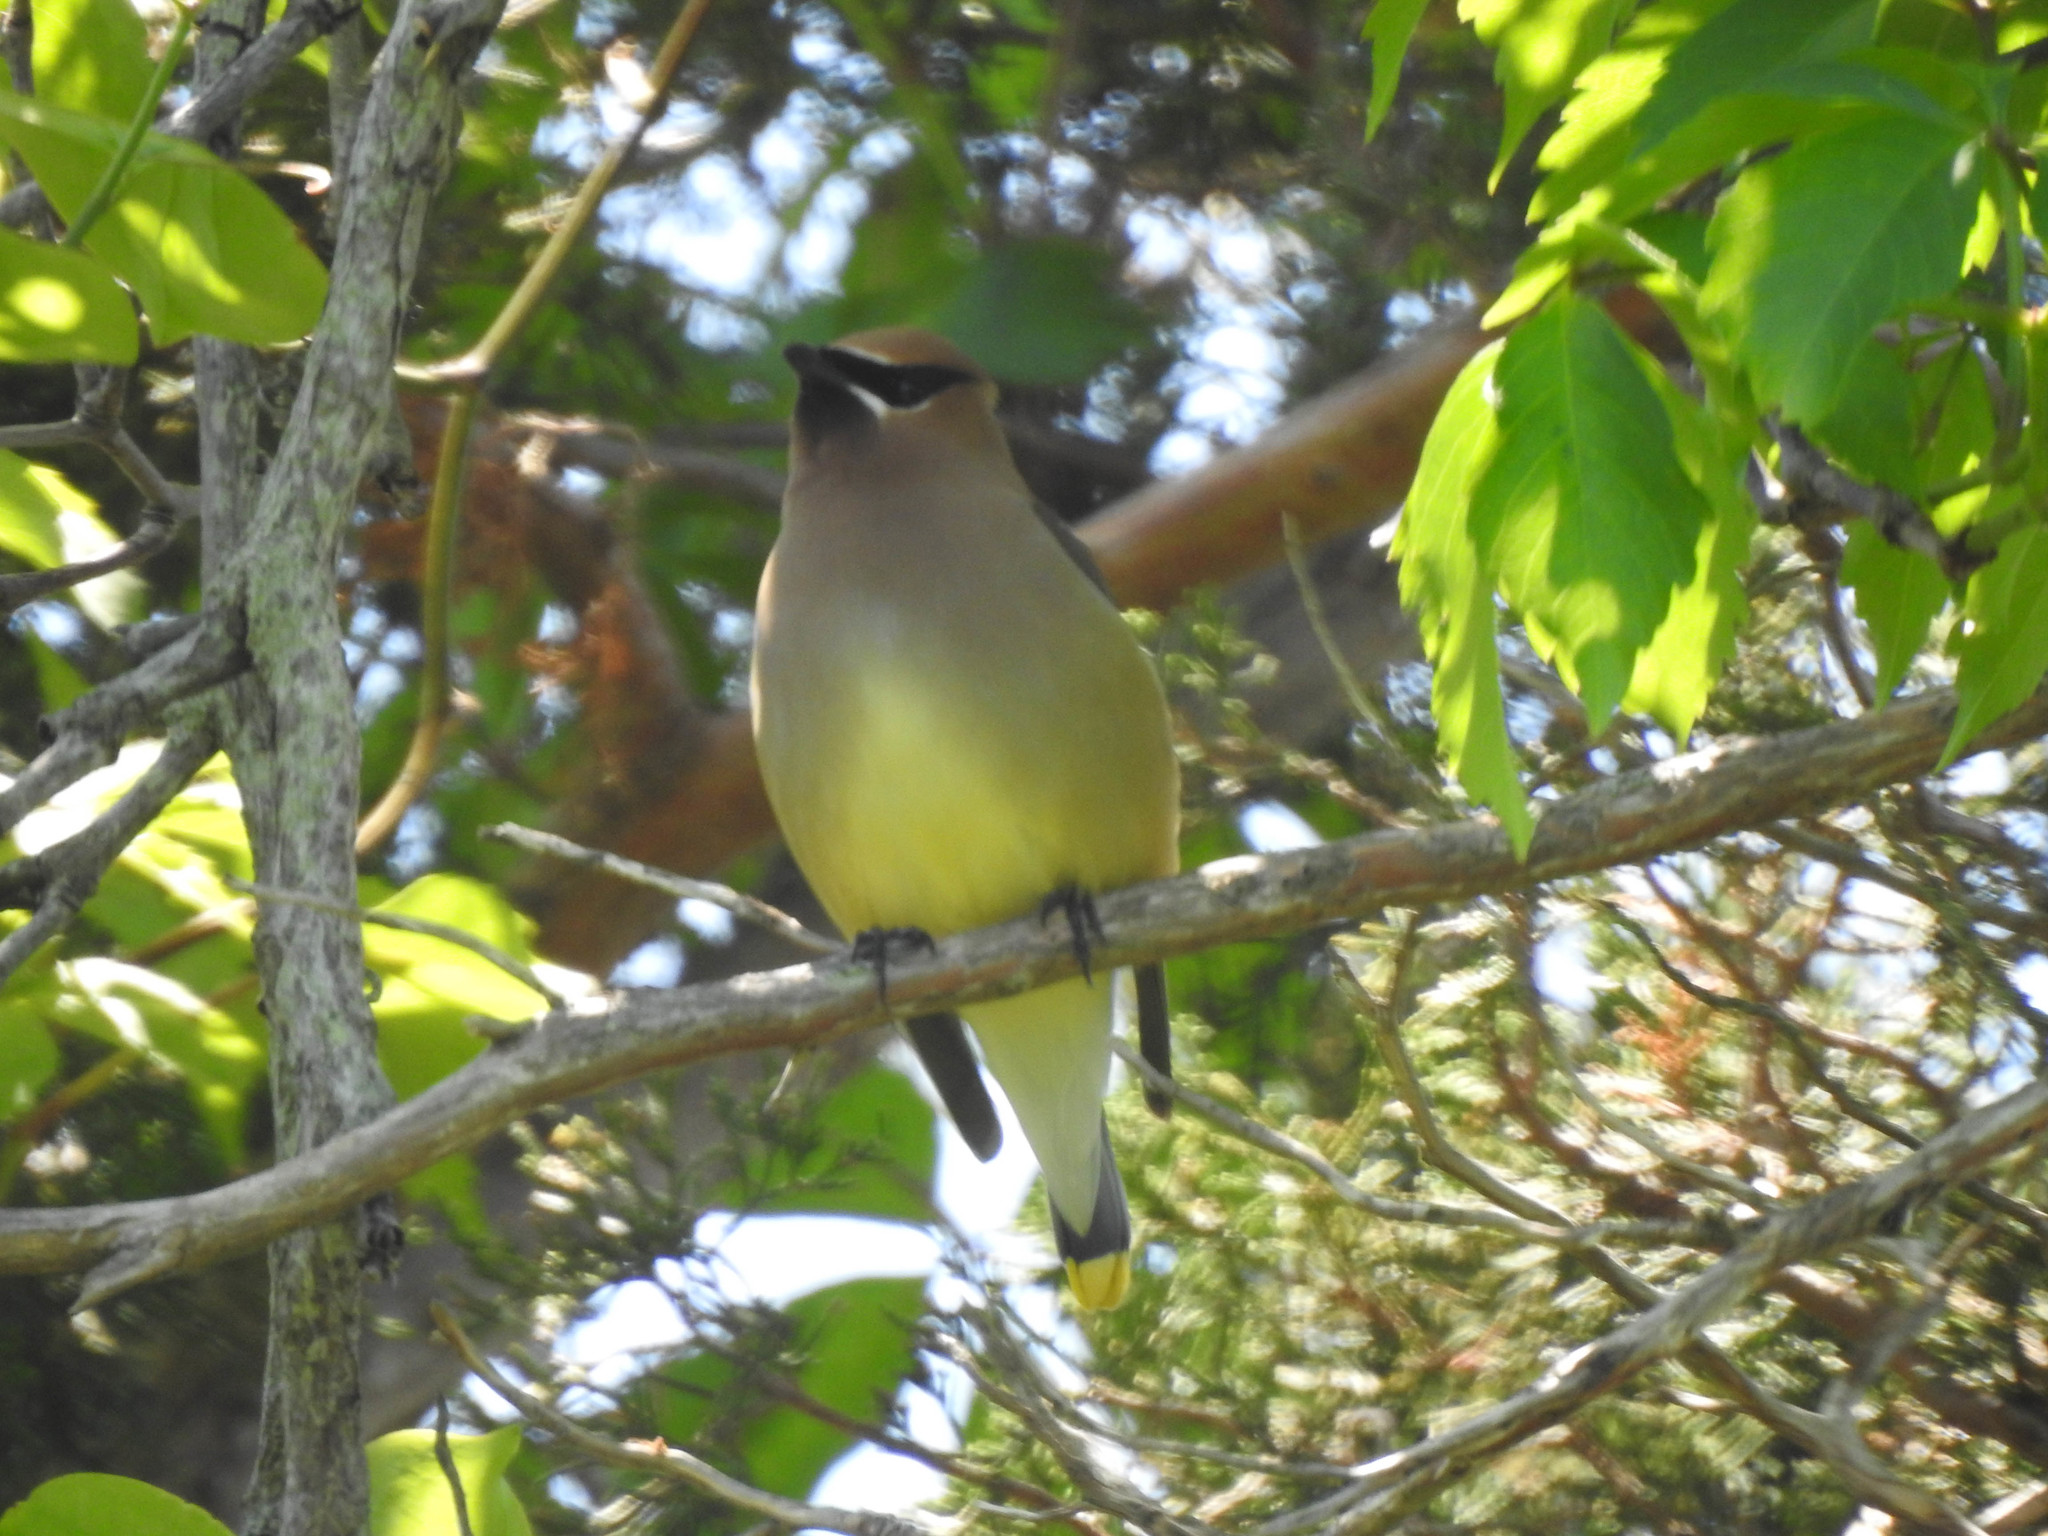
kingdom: Animalia
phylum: Chordata
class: Aves
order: Passeriformes
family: Bombycillidae
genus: Bombycilla
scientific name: Bombycilla cedrorum
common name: Cedar waxwing
